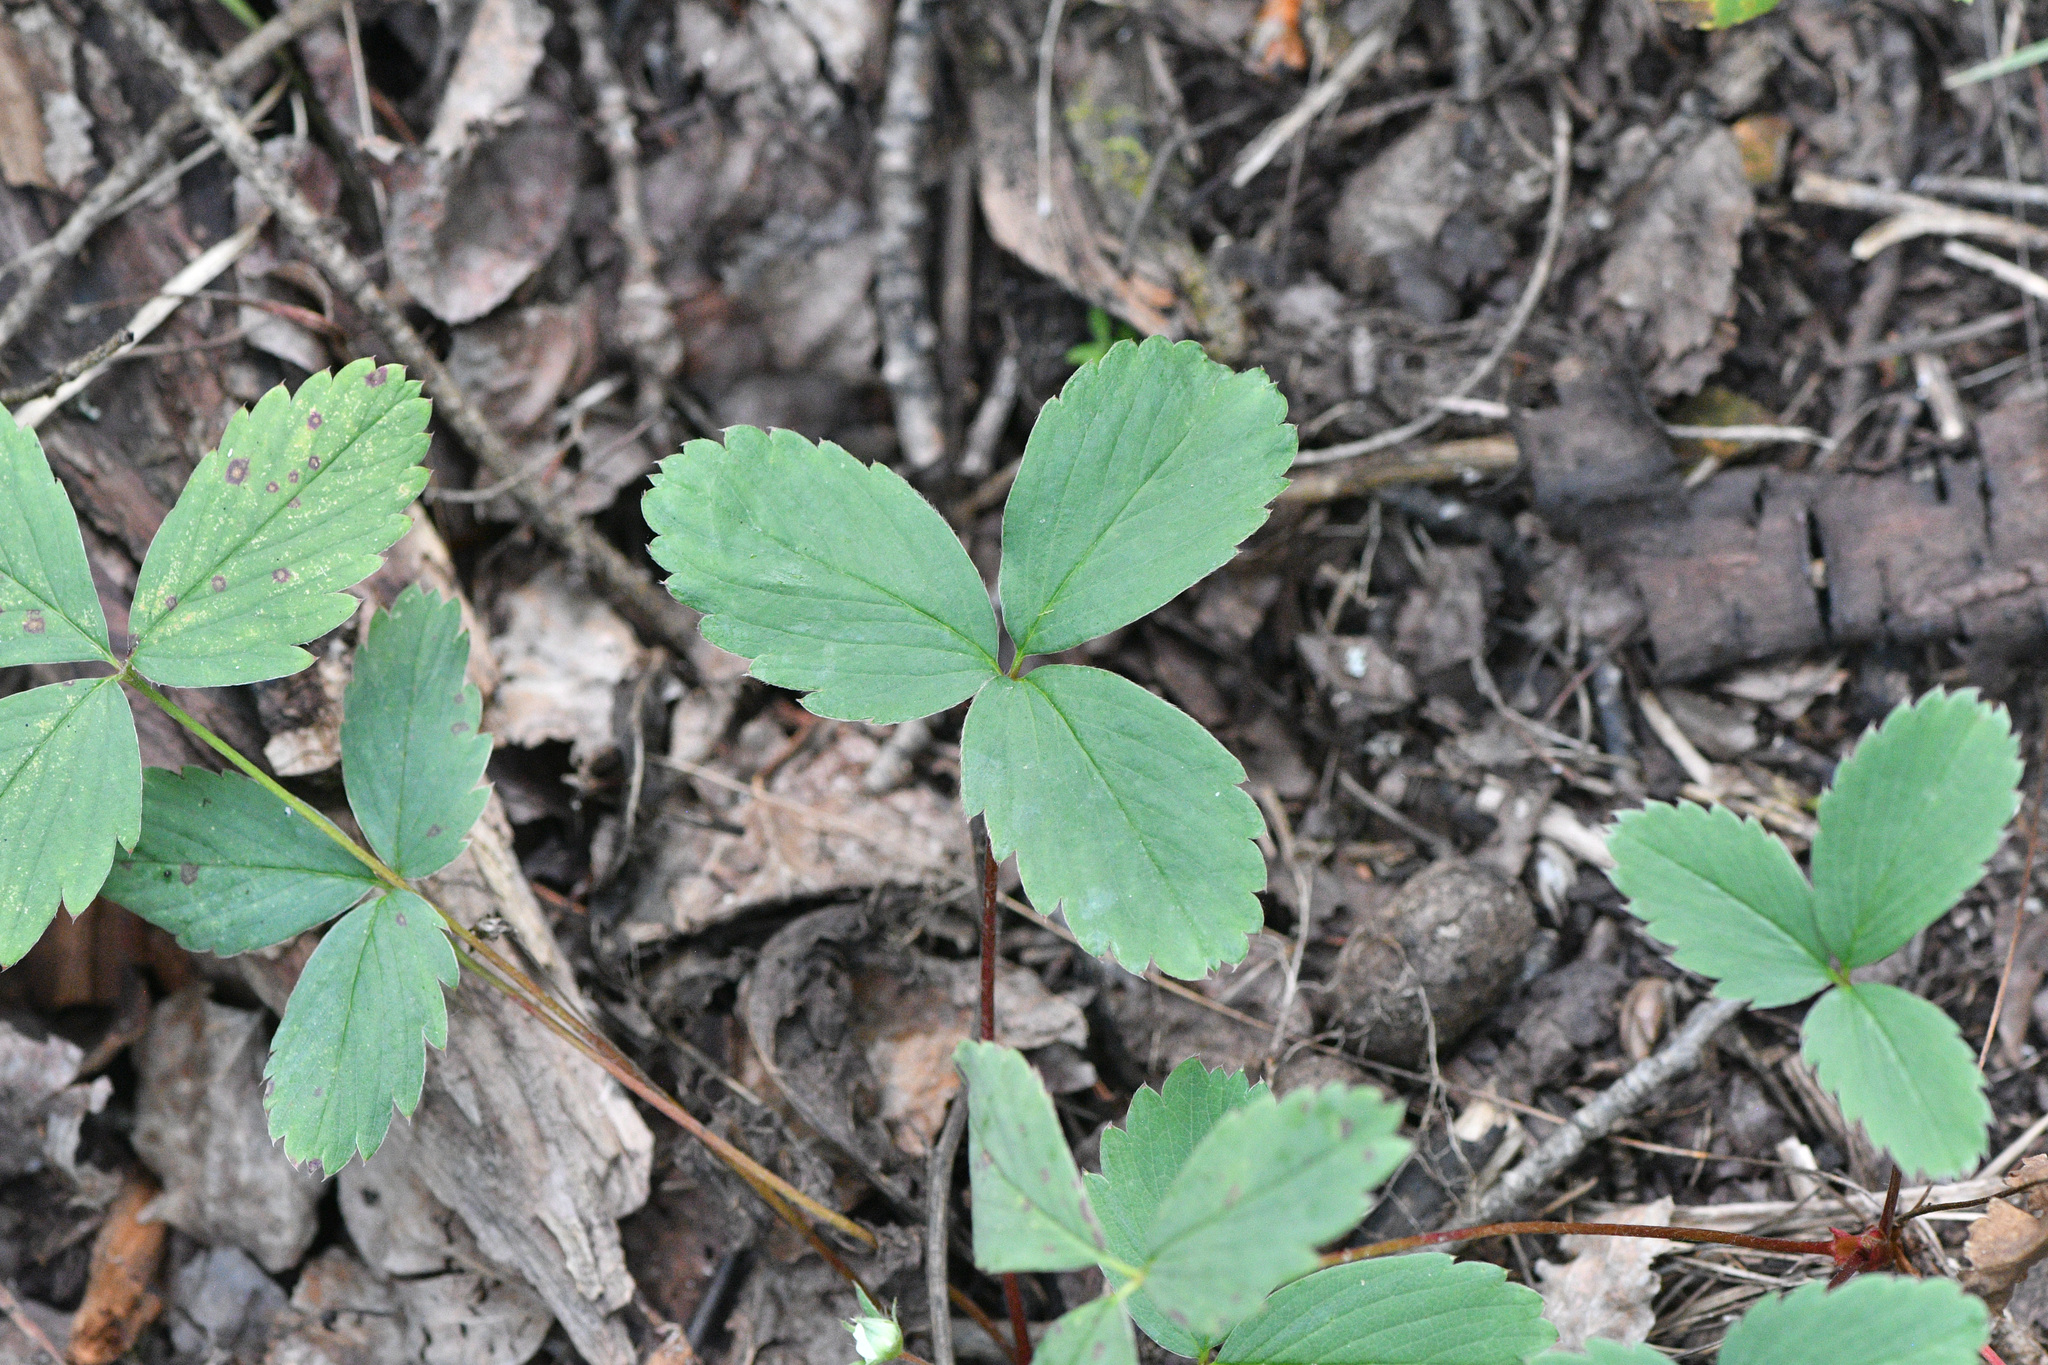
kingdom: Plantae
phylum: Tracheophyta
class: Magnoliopsida
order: Rosales
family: Rosaceae
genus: Fragaria
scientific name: Fragaria virginiana
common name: Thickleaved wild strawberry
